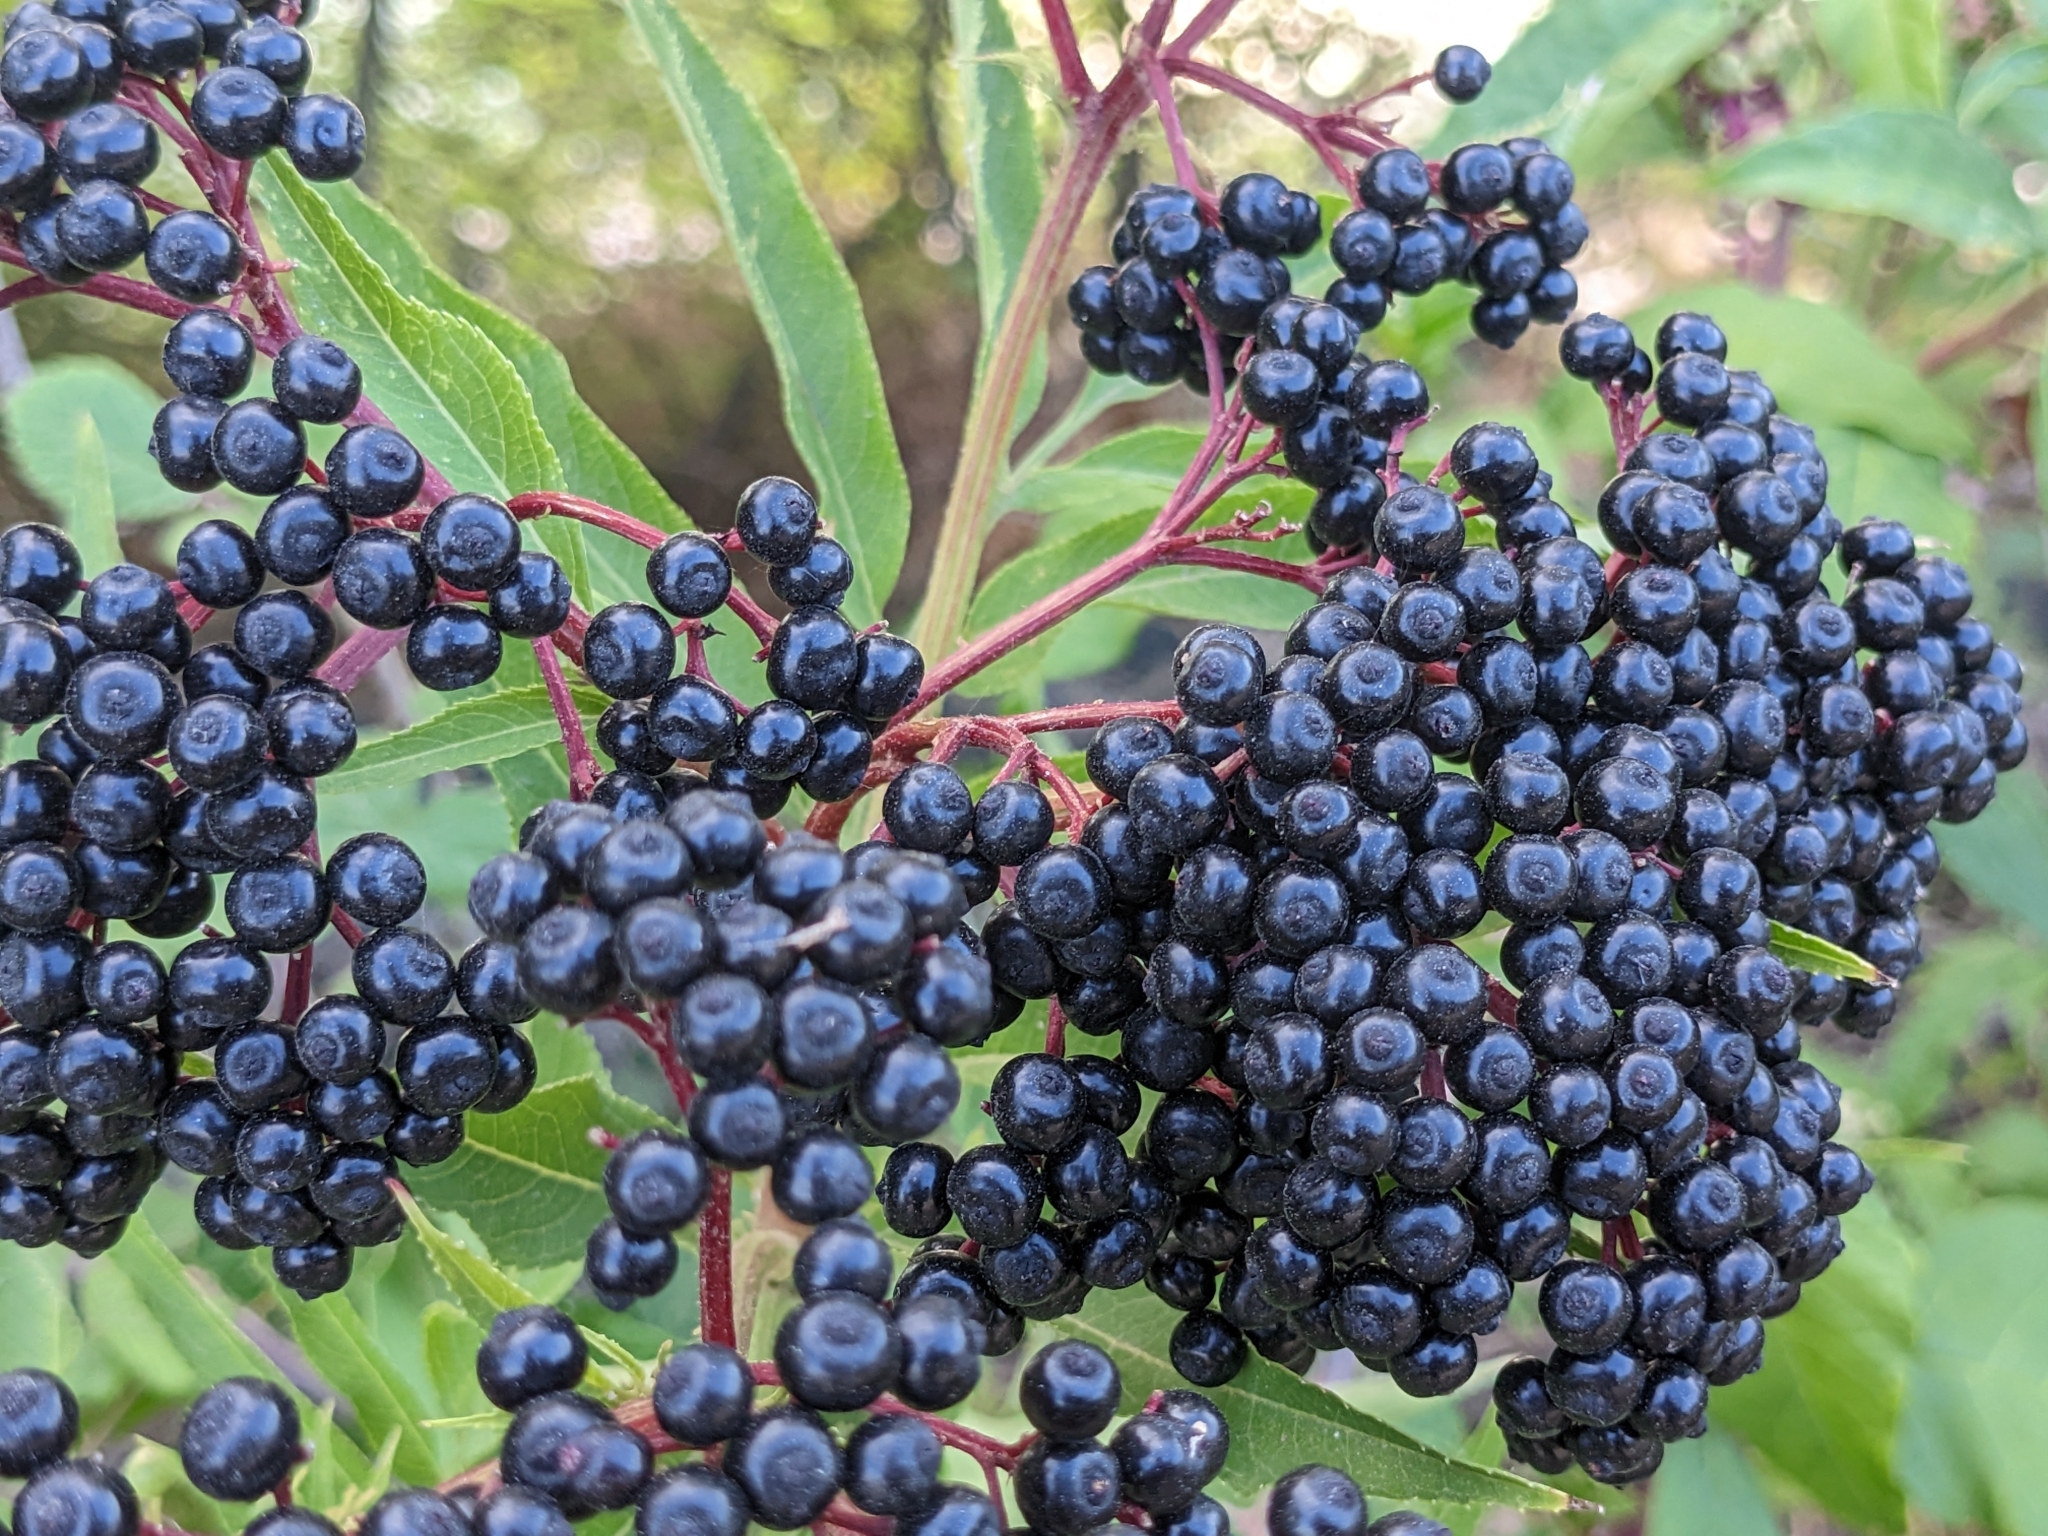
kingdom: Plantae
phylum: Tracheophyta
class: Magnoliopsida
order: Dipsacales
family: Viburnaceae
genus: Sambucus
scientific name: Sambucus ebulus
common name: Dwarf elder
